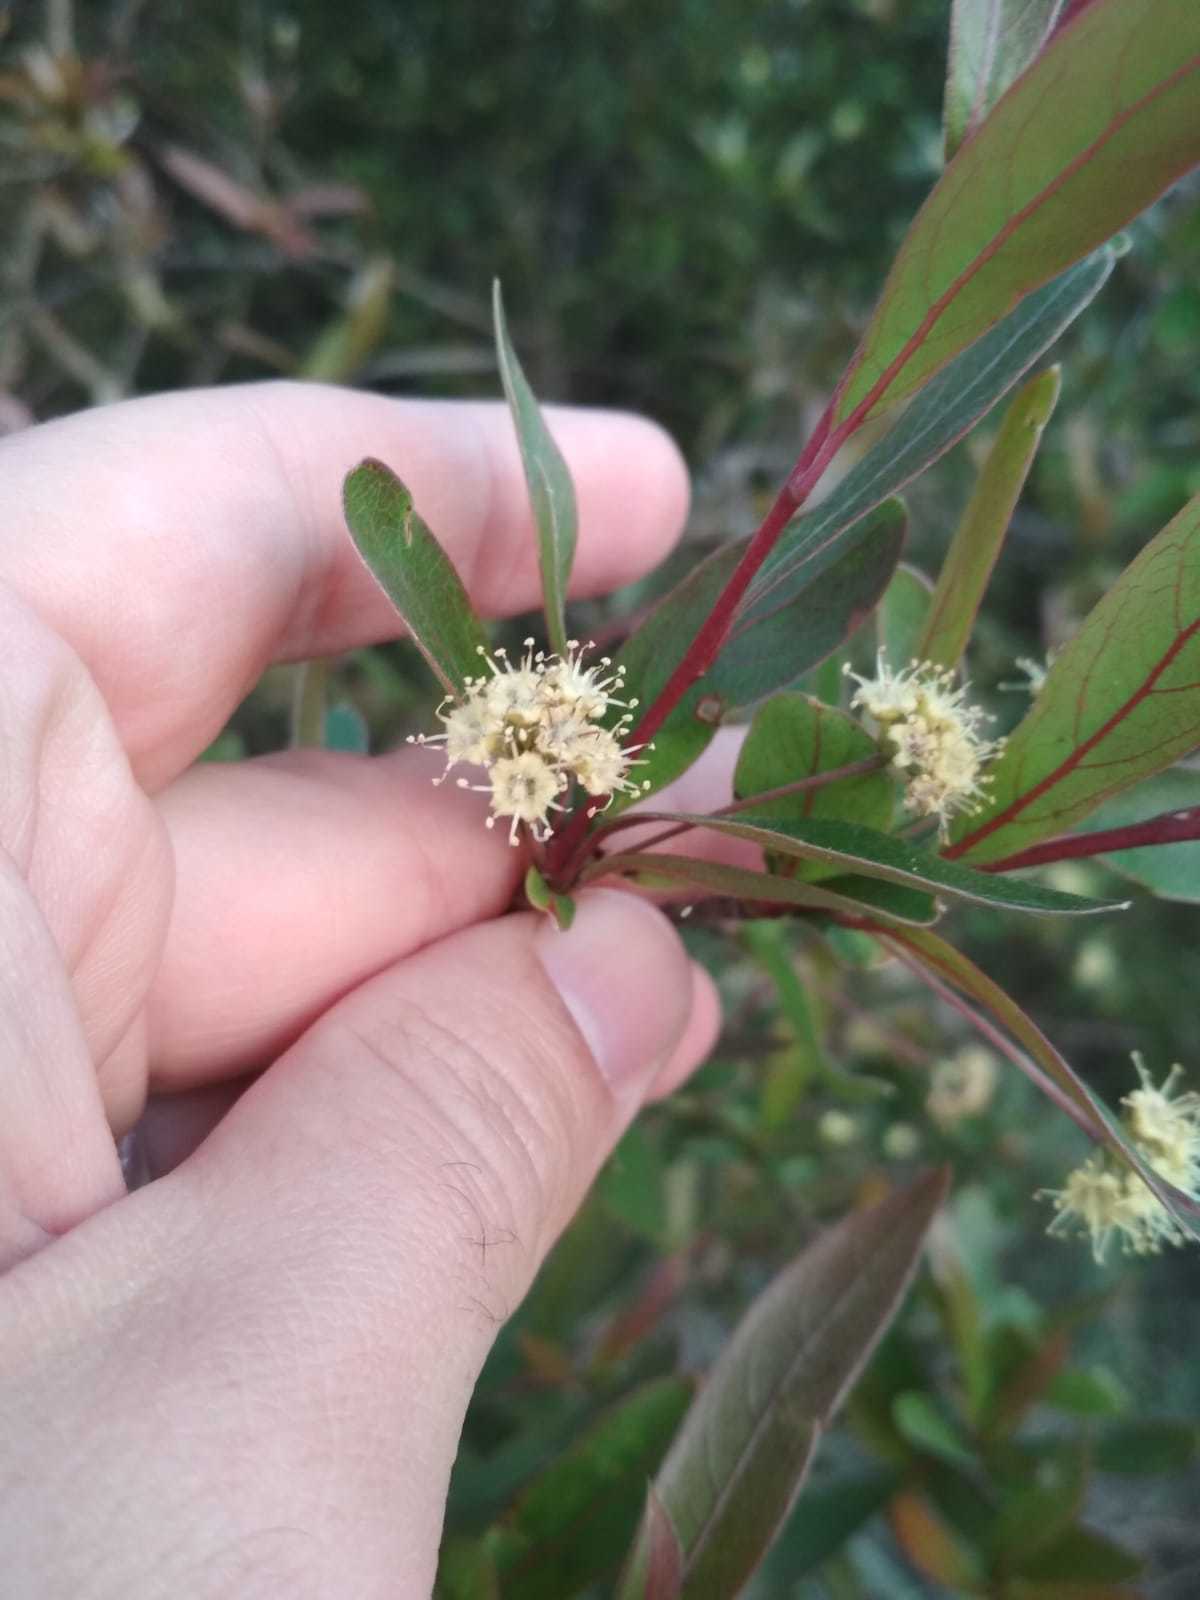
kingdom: Plantae
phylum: Tracheophyta
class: Magnoliopsida
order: Myrtales
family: Combretaceae
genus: Terminalia
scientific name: Terminalia australis
